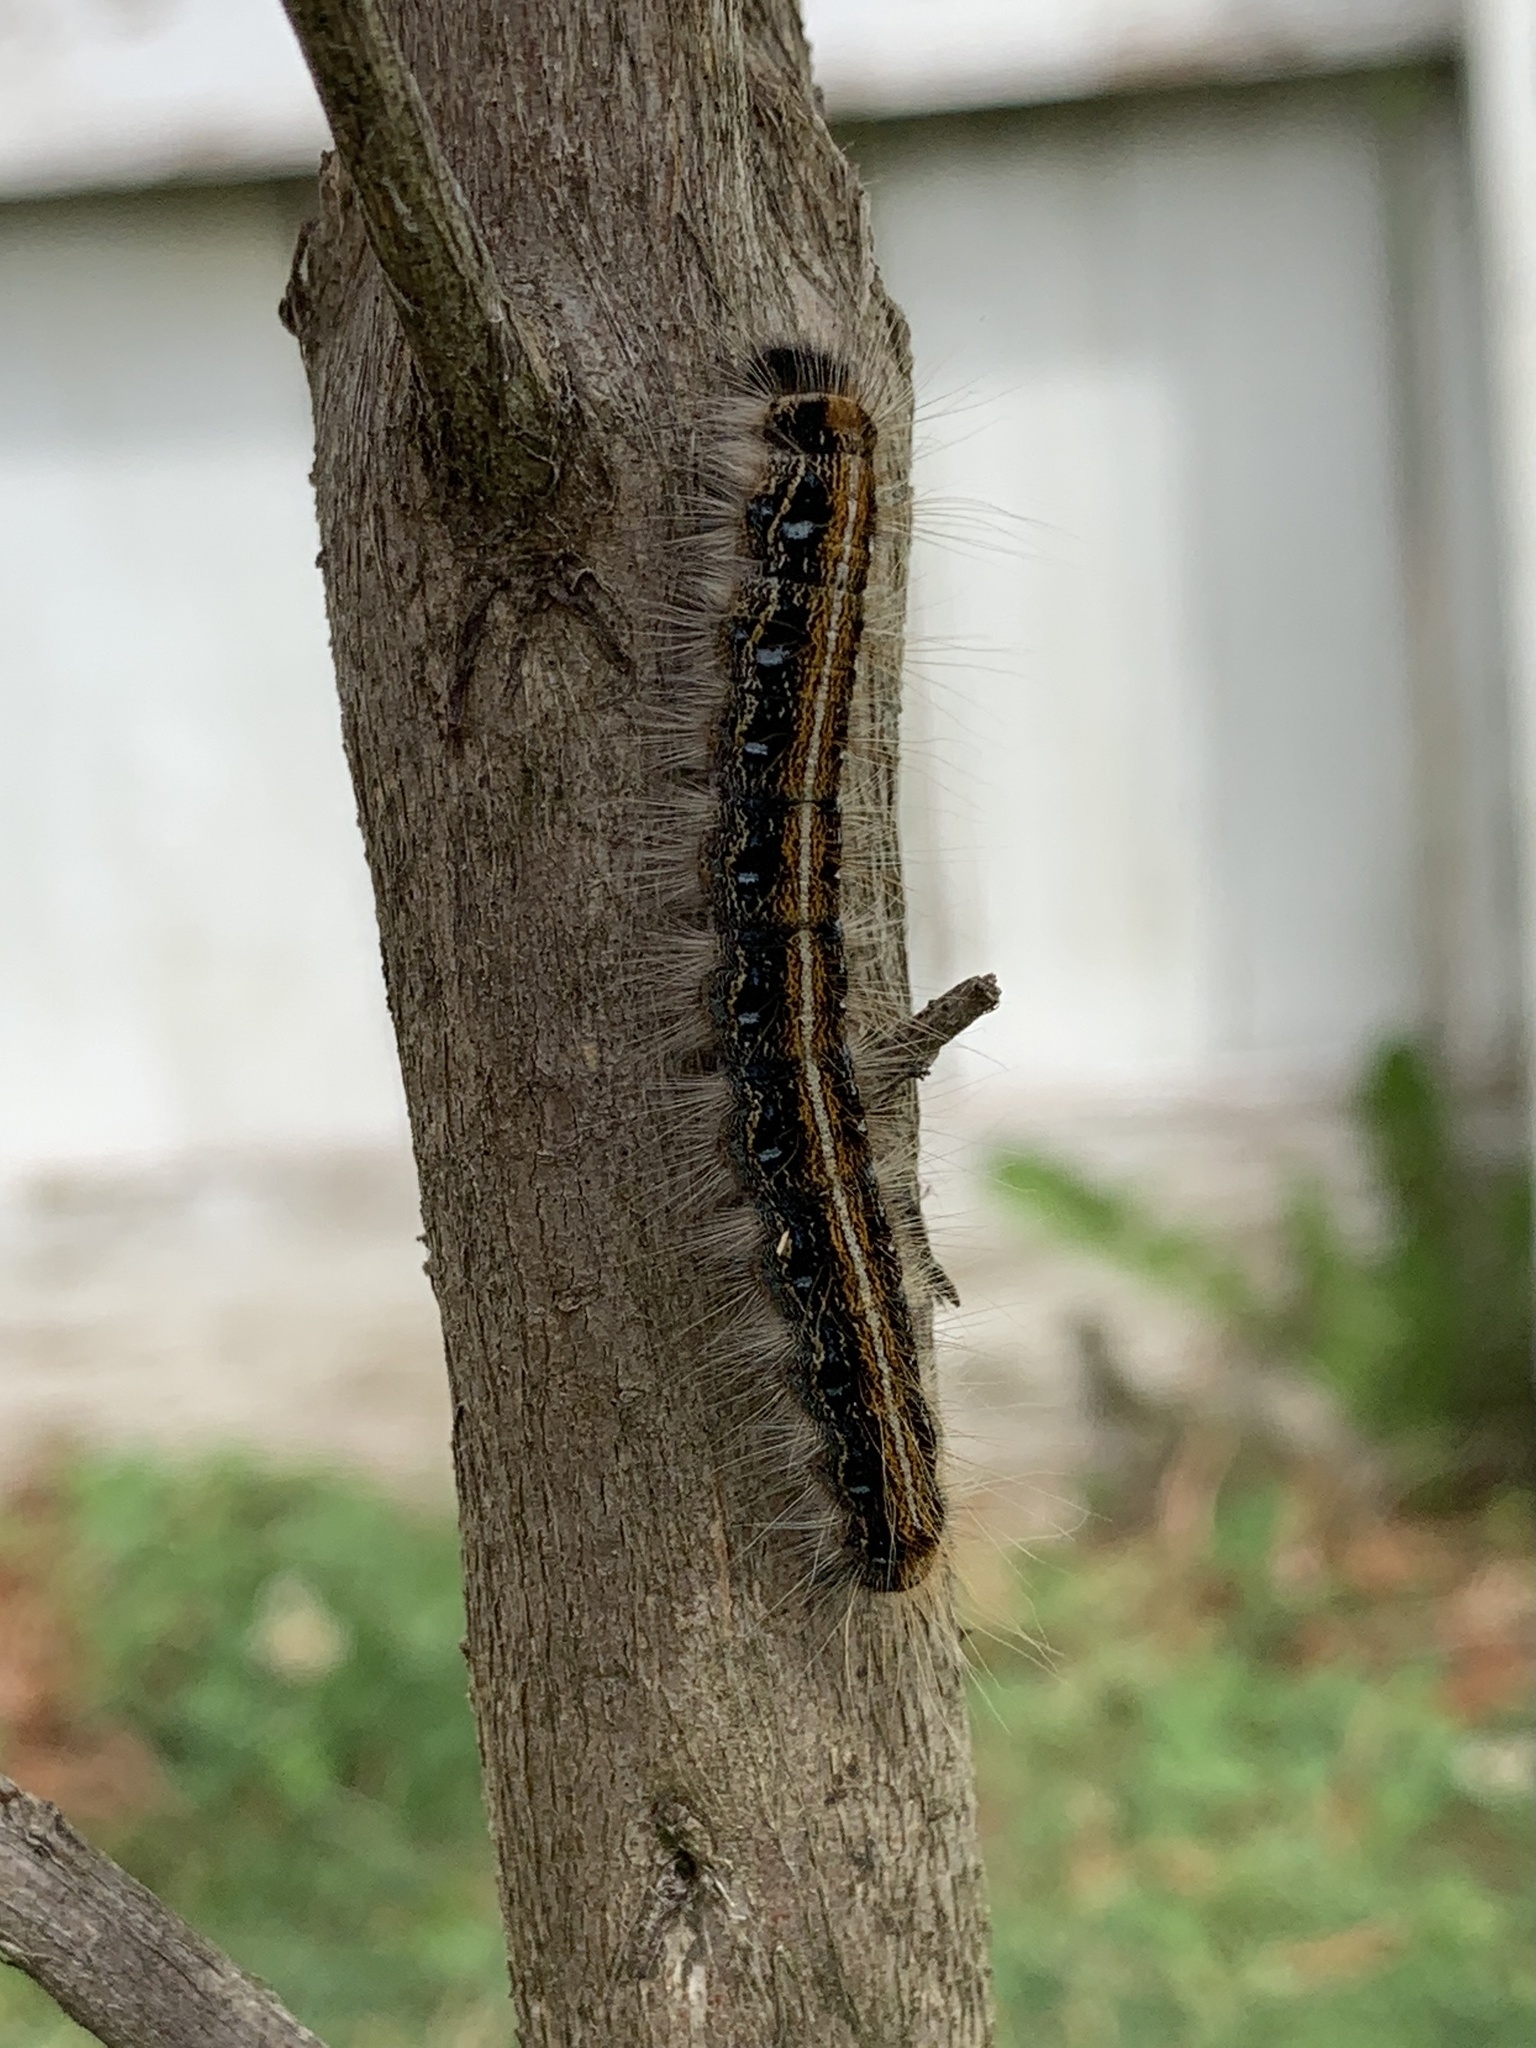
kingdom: Animalia
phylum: Arthropoda
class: Insecta
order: Lepidoptera
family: Lasiocampidae
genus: Malacosoma
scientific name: Malacosoma americana
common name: Eastern tent caterpillar moth
